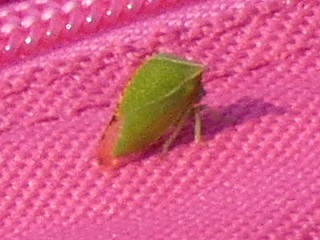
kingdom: Animalia
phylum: Arthropoda
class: Insecta
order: Hemiptera
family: Membracidae
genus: Stictocephala
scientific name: Stictocephala bisonia
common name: American buffalo treehopper
